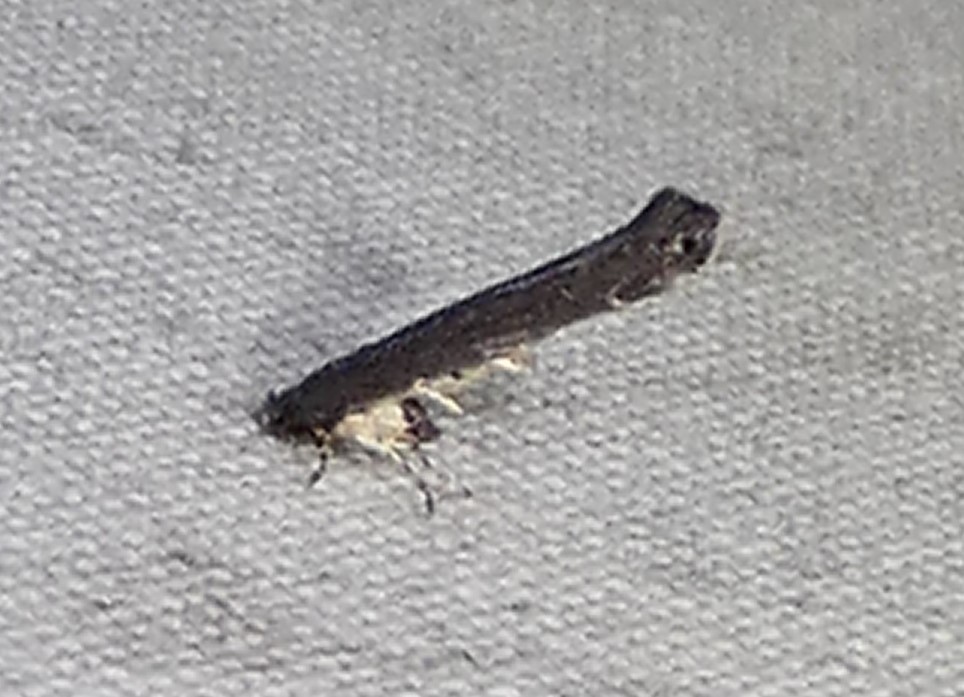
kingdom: Animalia
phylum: Arthropoda
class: Insecta
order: Lepidoptera
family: Cosmopterigidae
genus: Ithome
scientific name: Ithome erransella
